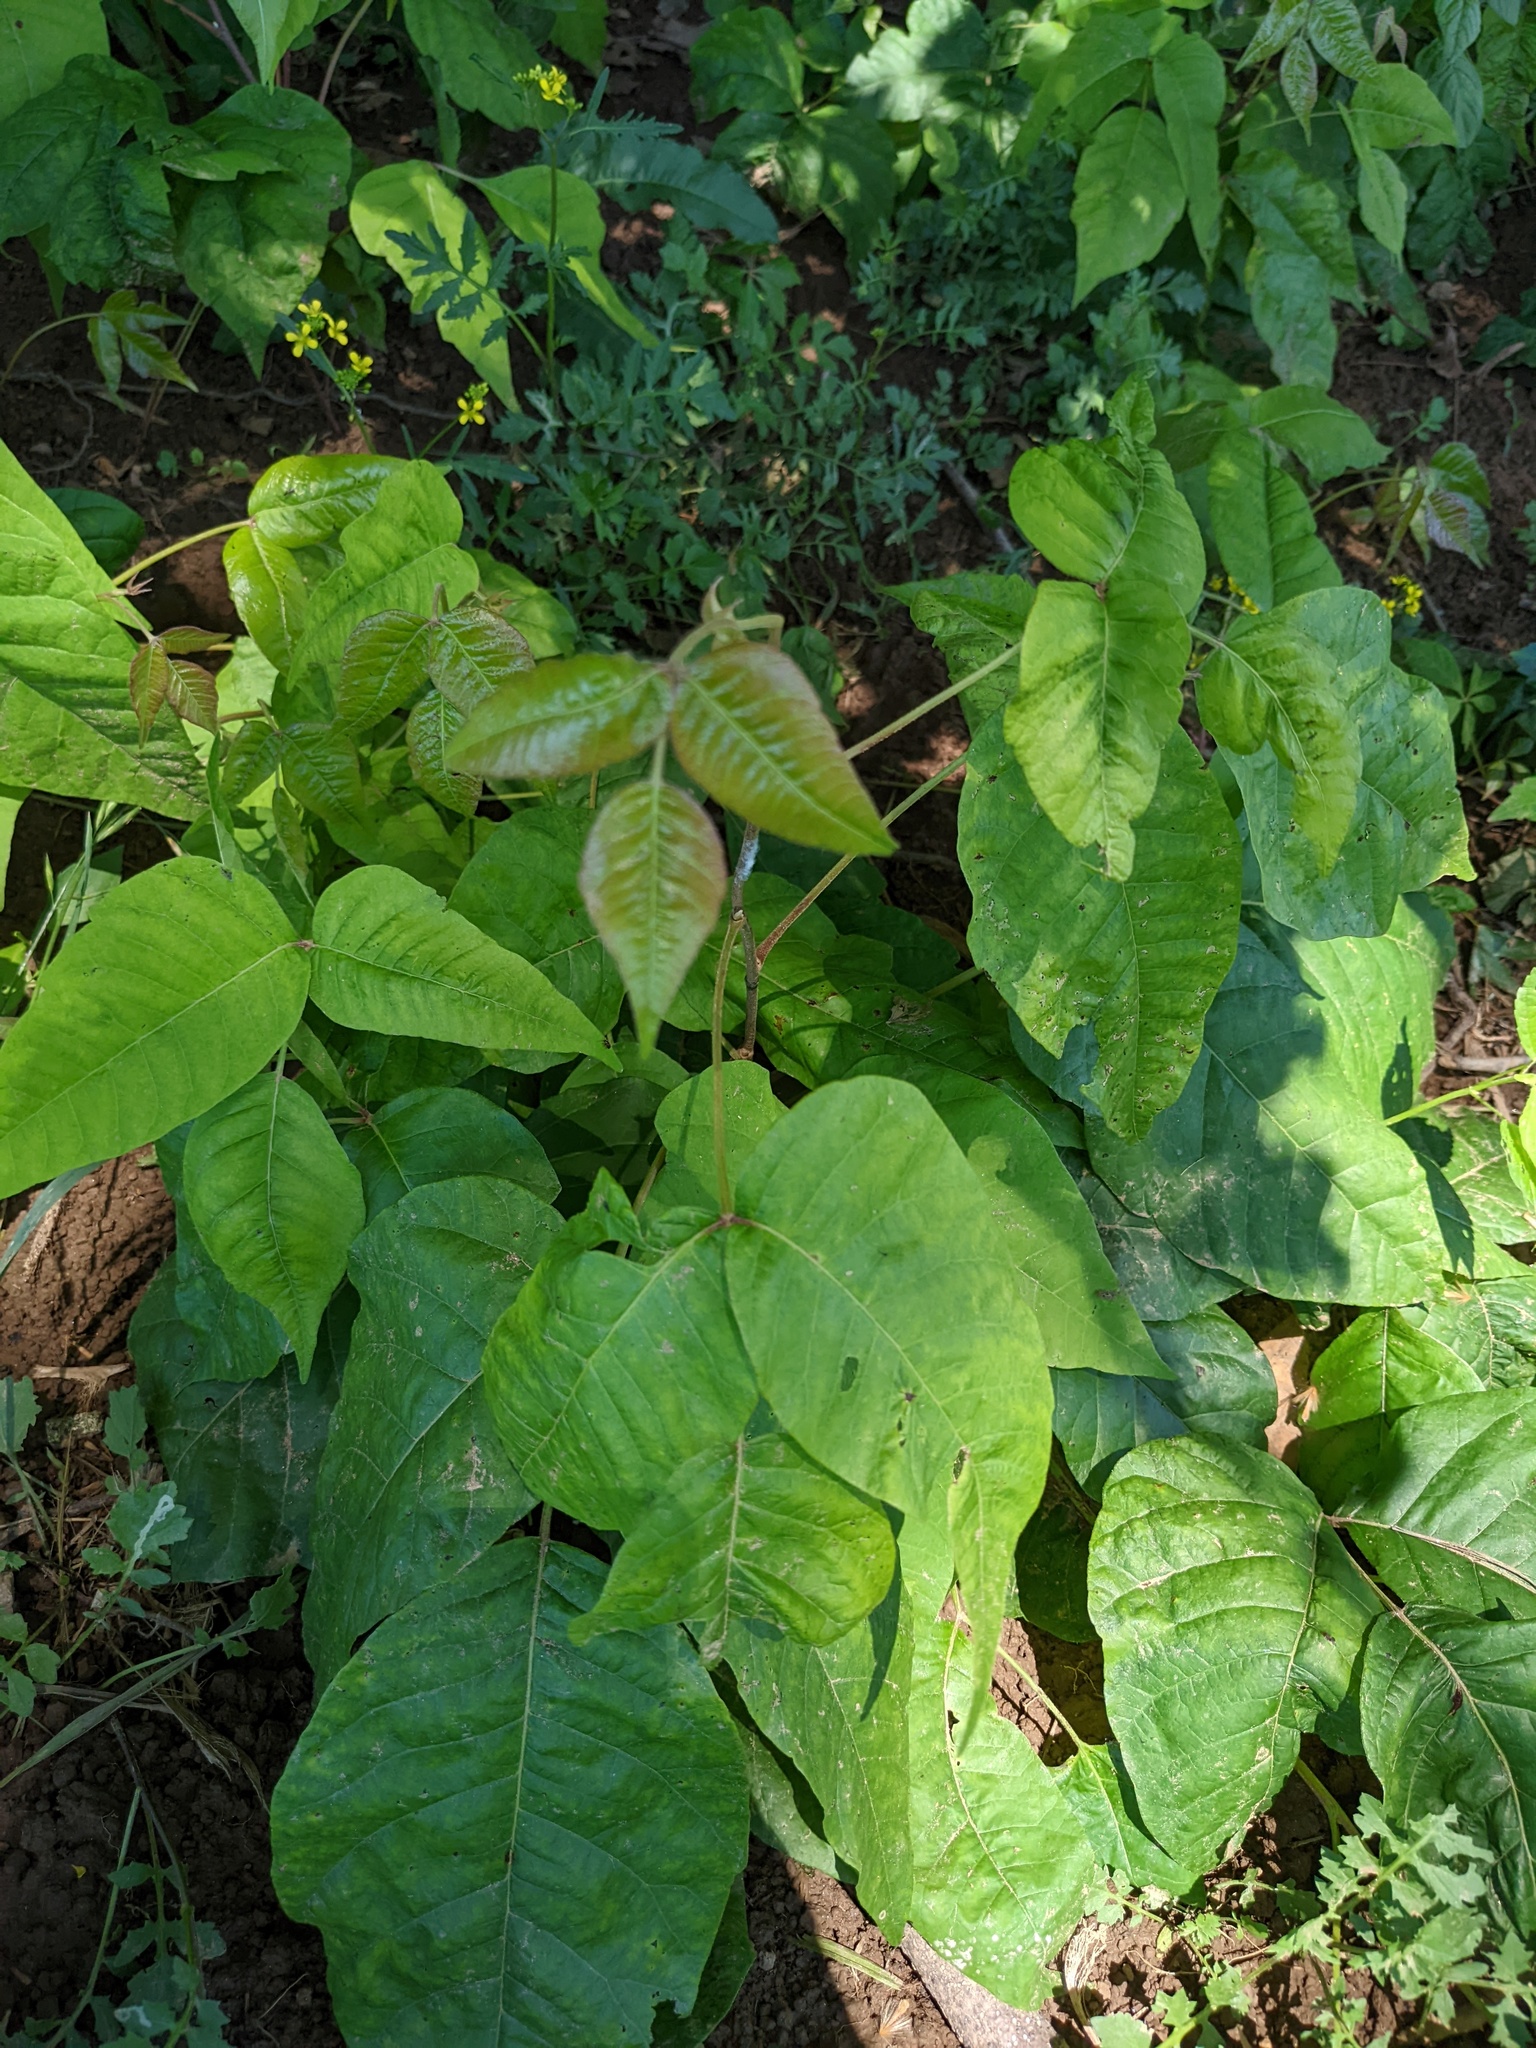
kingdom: Plantae
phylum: Tracheophyta
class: Magnoliopsida
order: Sapindales
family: Anacardiaceae
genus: Toxicodendron
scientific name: Toxicodendron radicans
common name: Poison ivy
